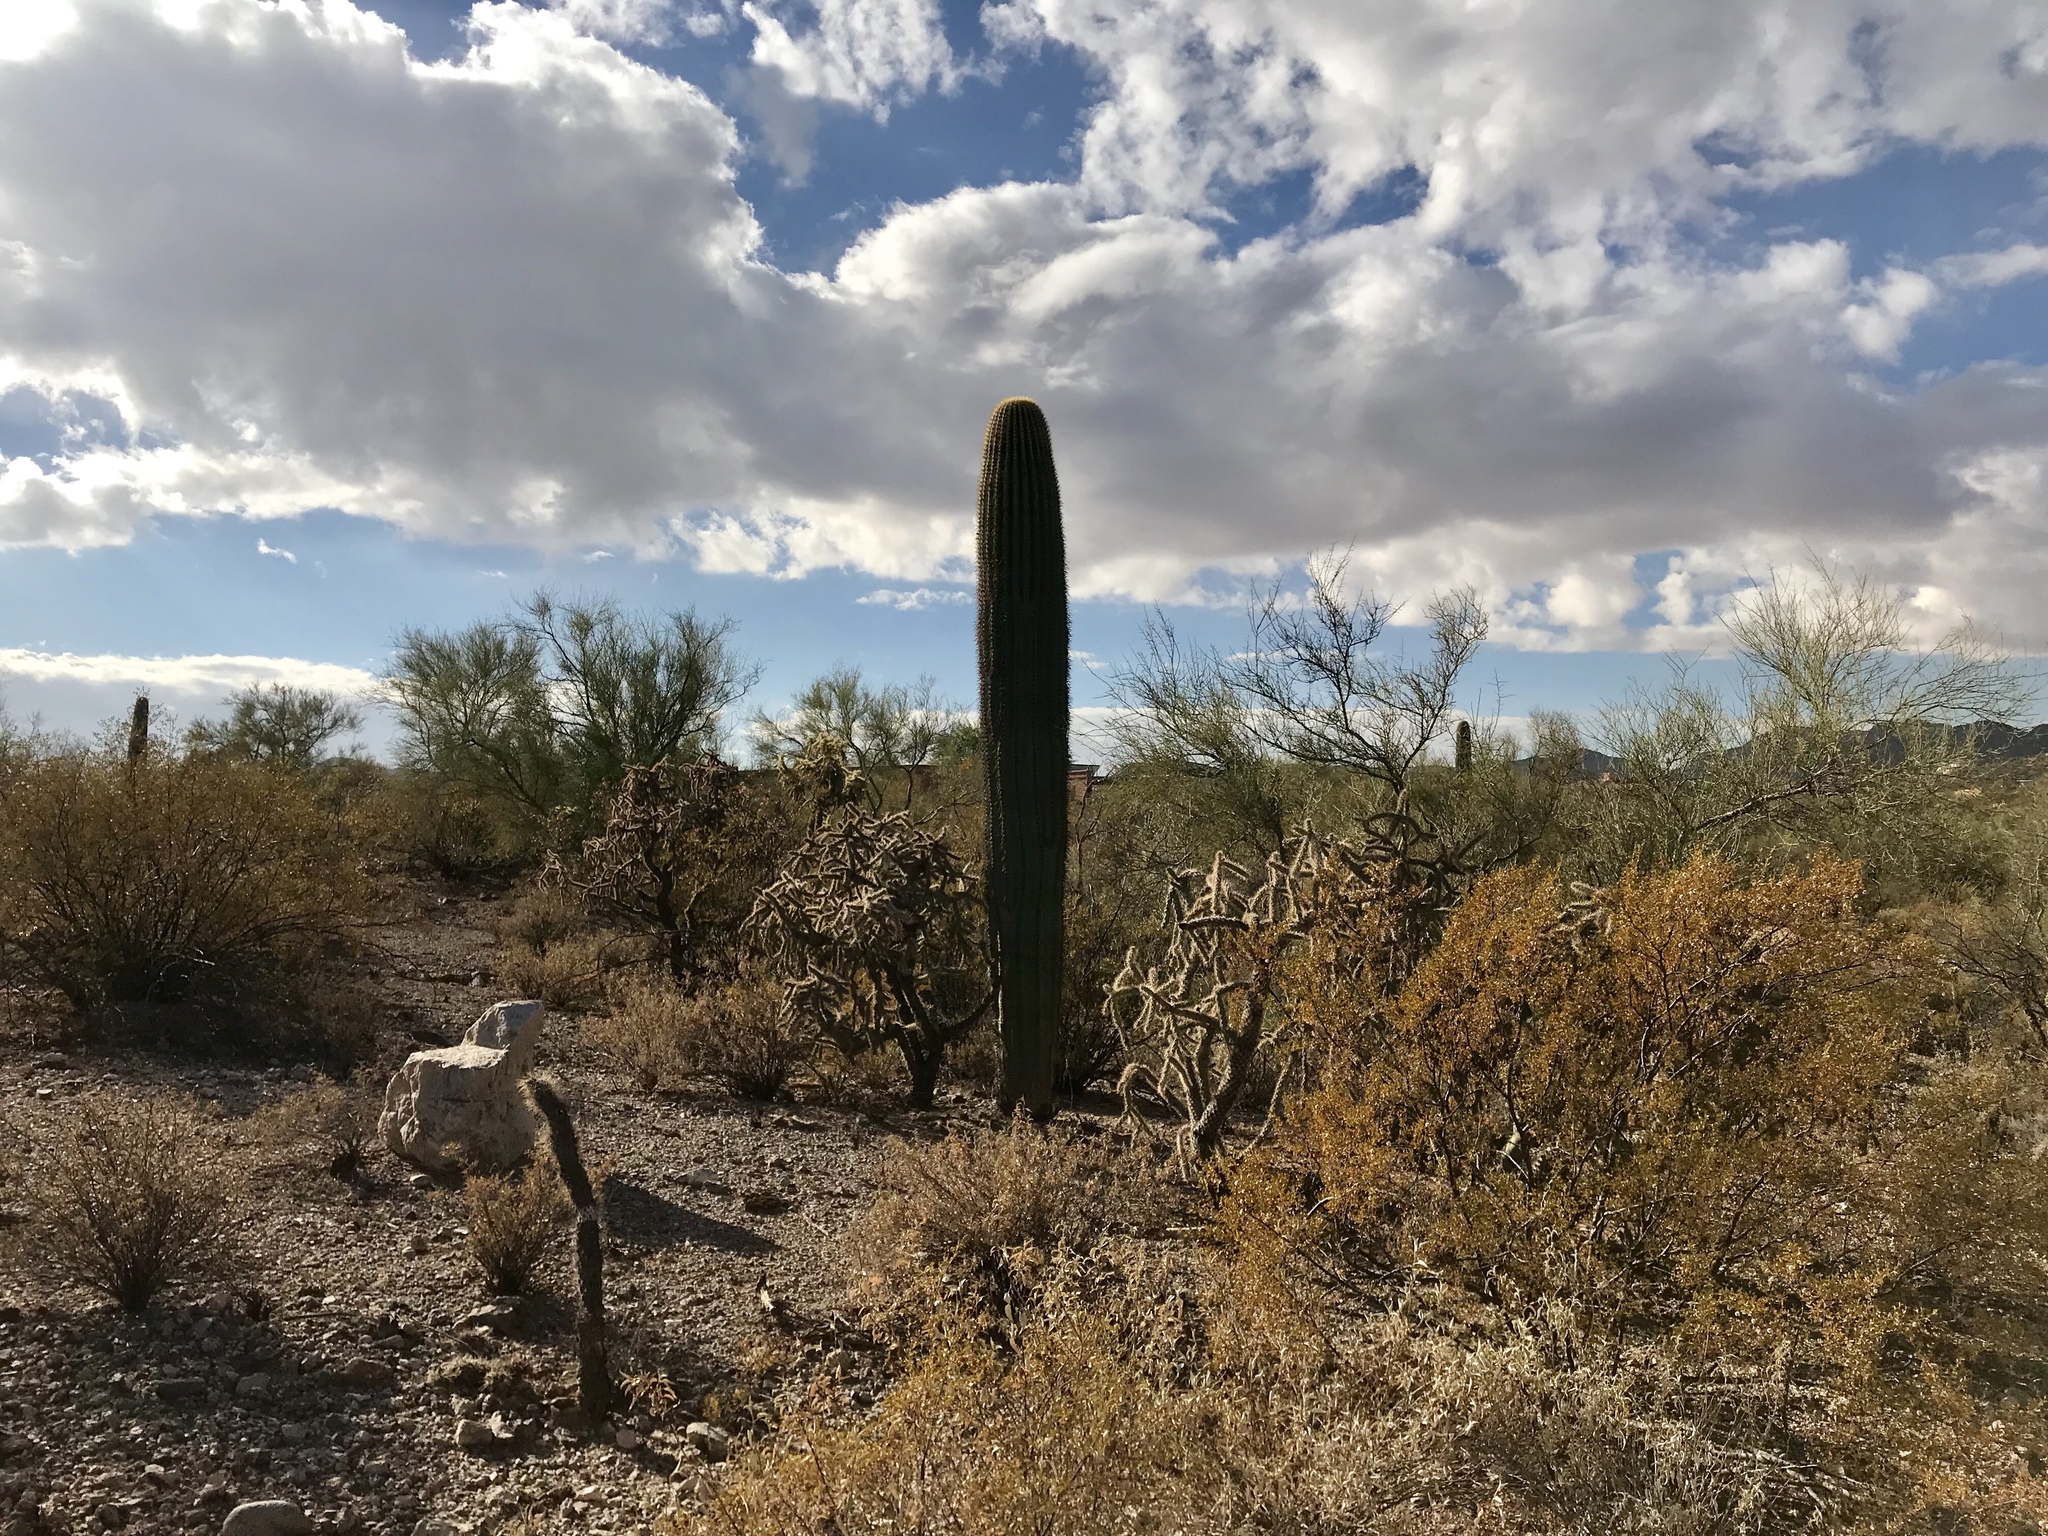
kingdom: Plantae
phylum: Tracheophyta
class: Magnoliopsida
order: Caryophyllales
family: Cactaceae
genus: Carnegiea
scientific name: Carnegiea gigantea
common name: Saguaro
